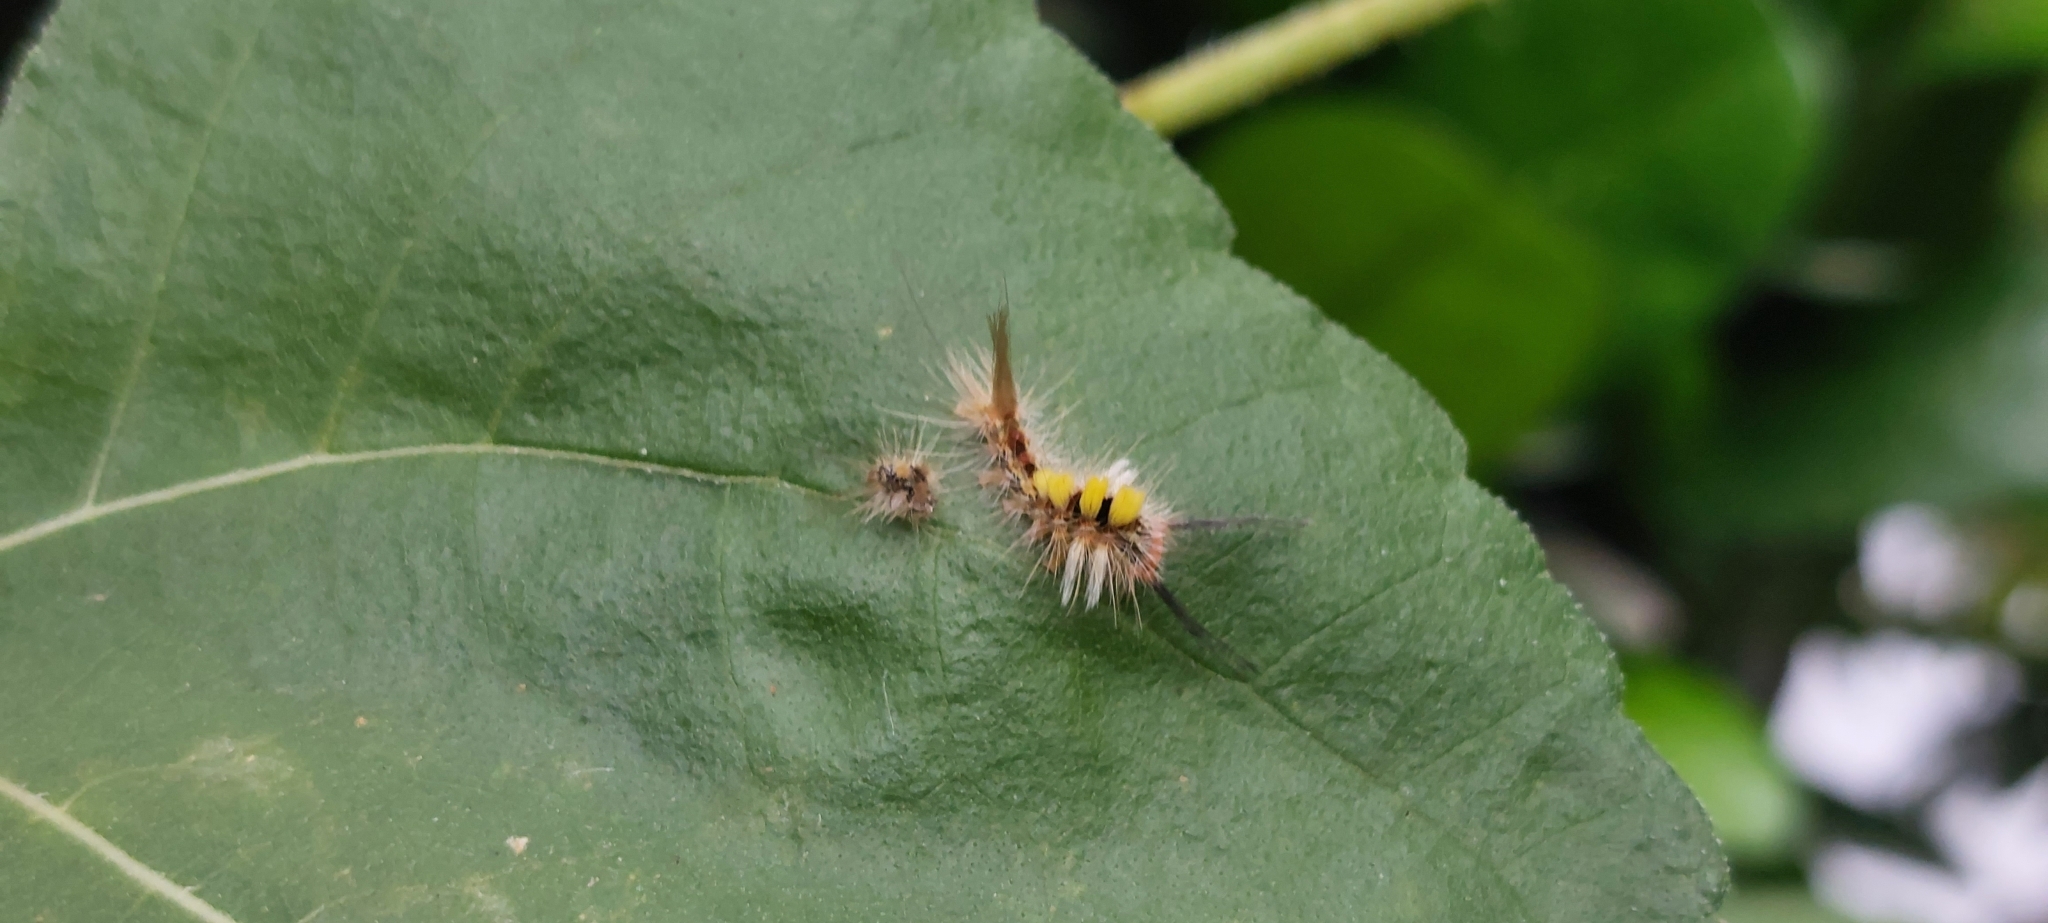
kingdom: Animalia
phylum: Arthropoda
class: Insecta
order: Lepidoptera
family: Erebidae
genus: Olene
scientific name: Olene mendosa
